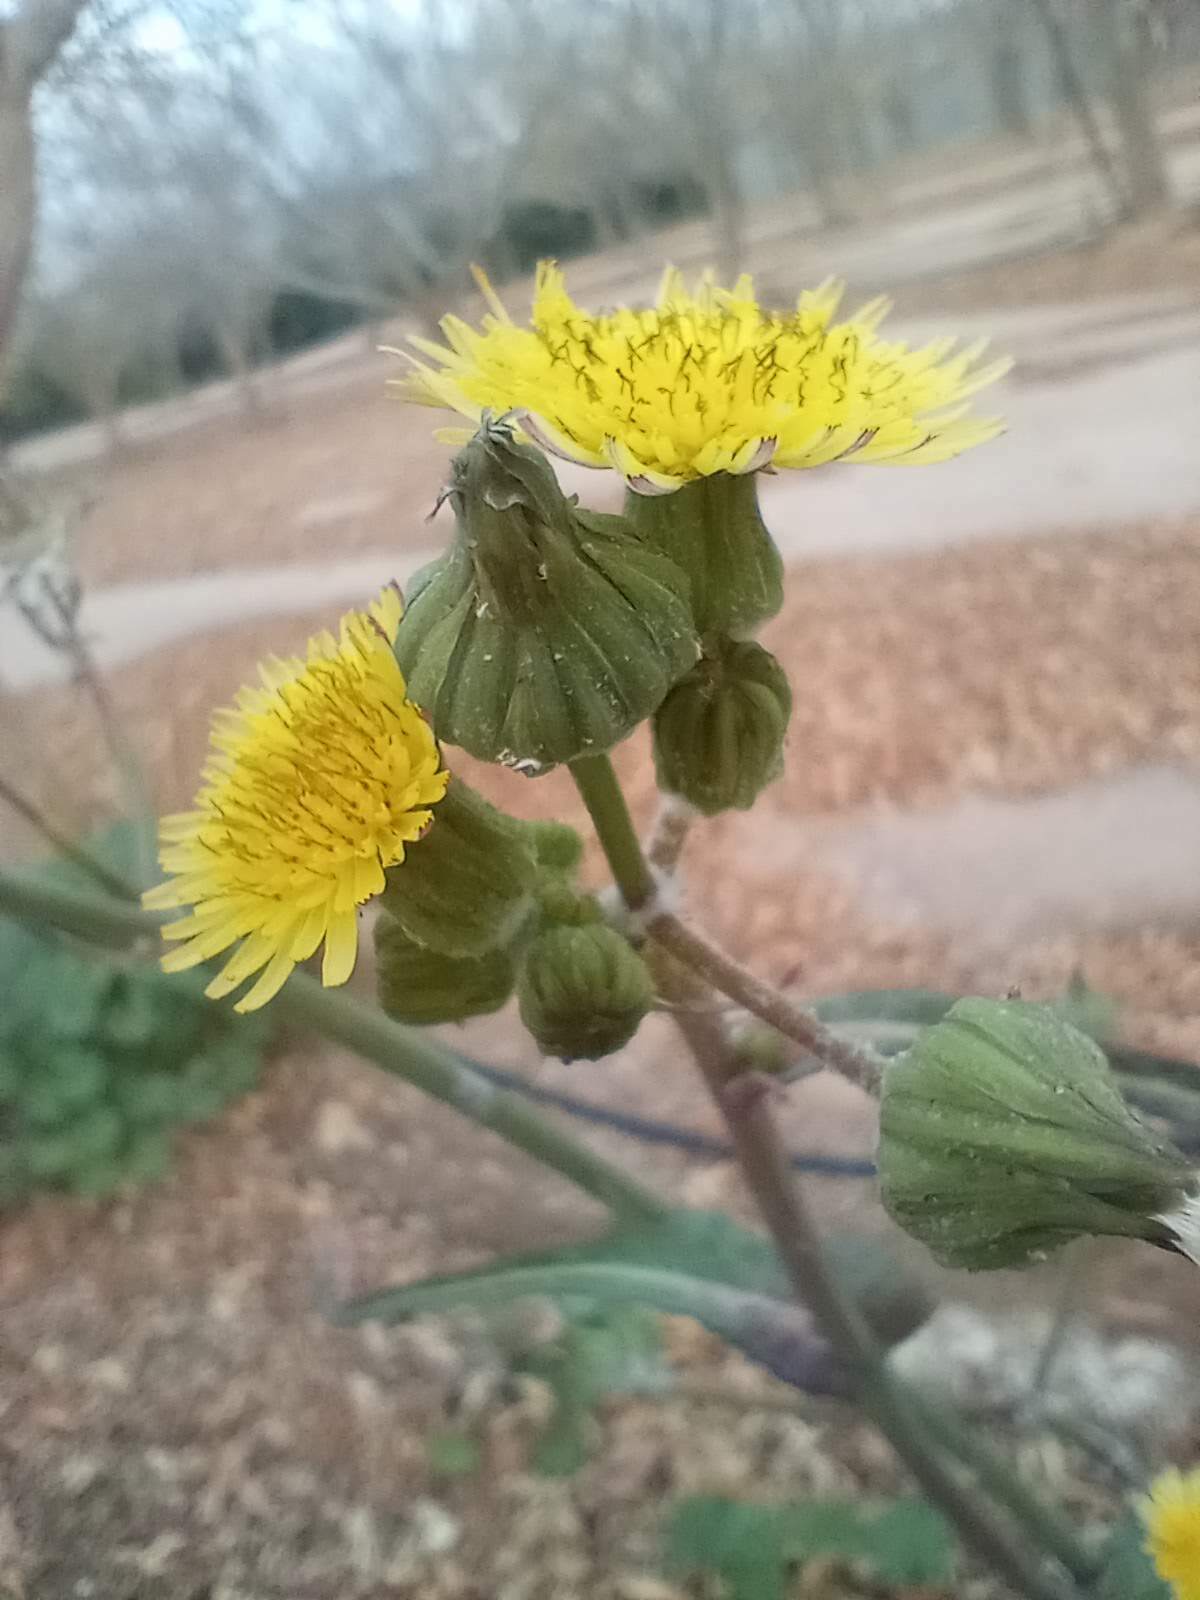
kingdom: Plantae
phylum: Tracheophyta
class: Magnoliopsida
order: Asterales
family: Asteraceae
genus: Sonchus
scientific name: Sonchus oleraceus
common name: Common sowthistle
